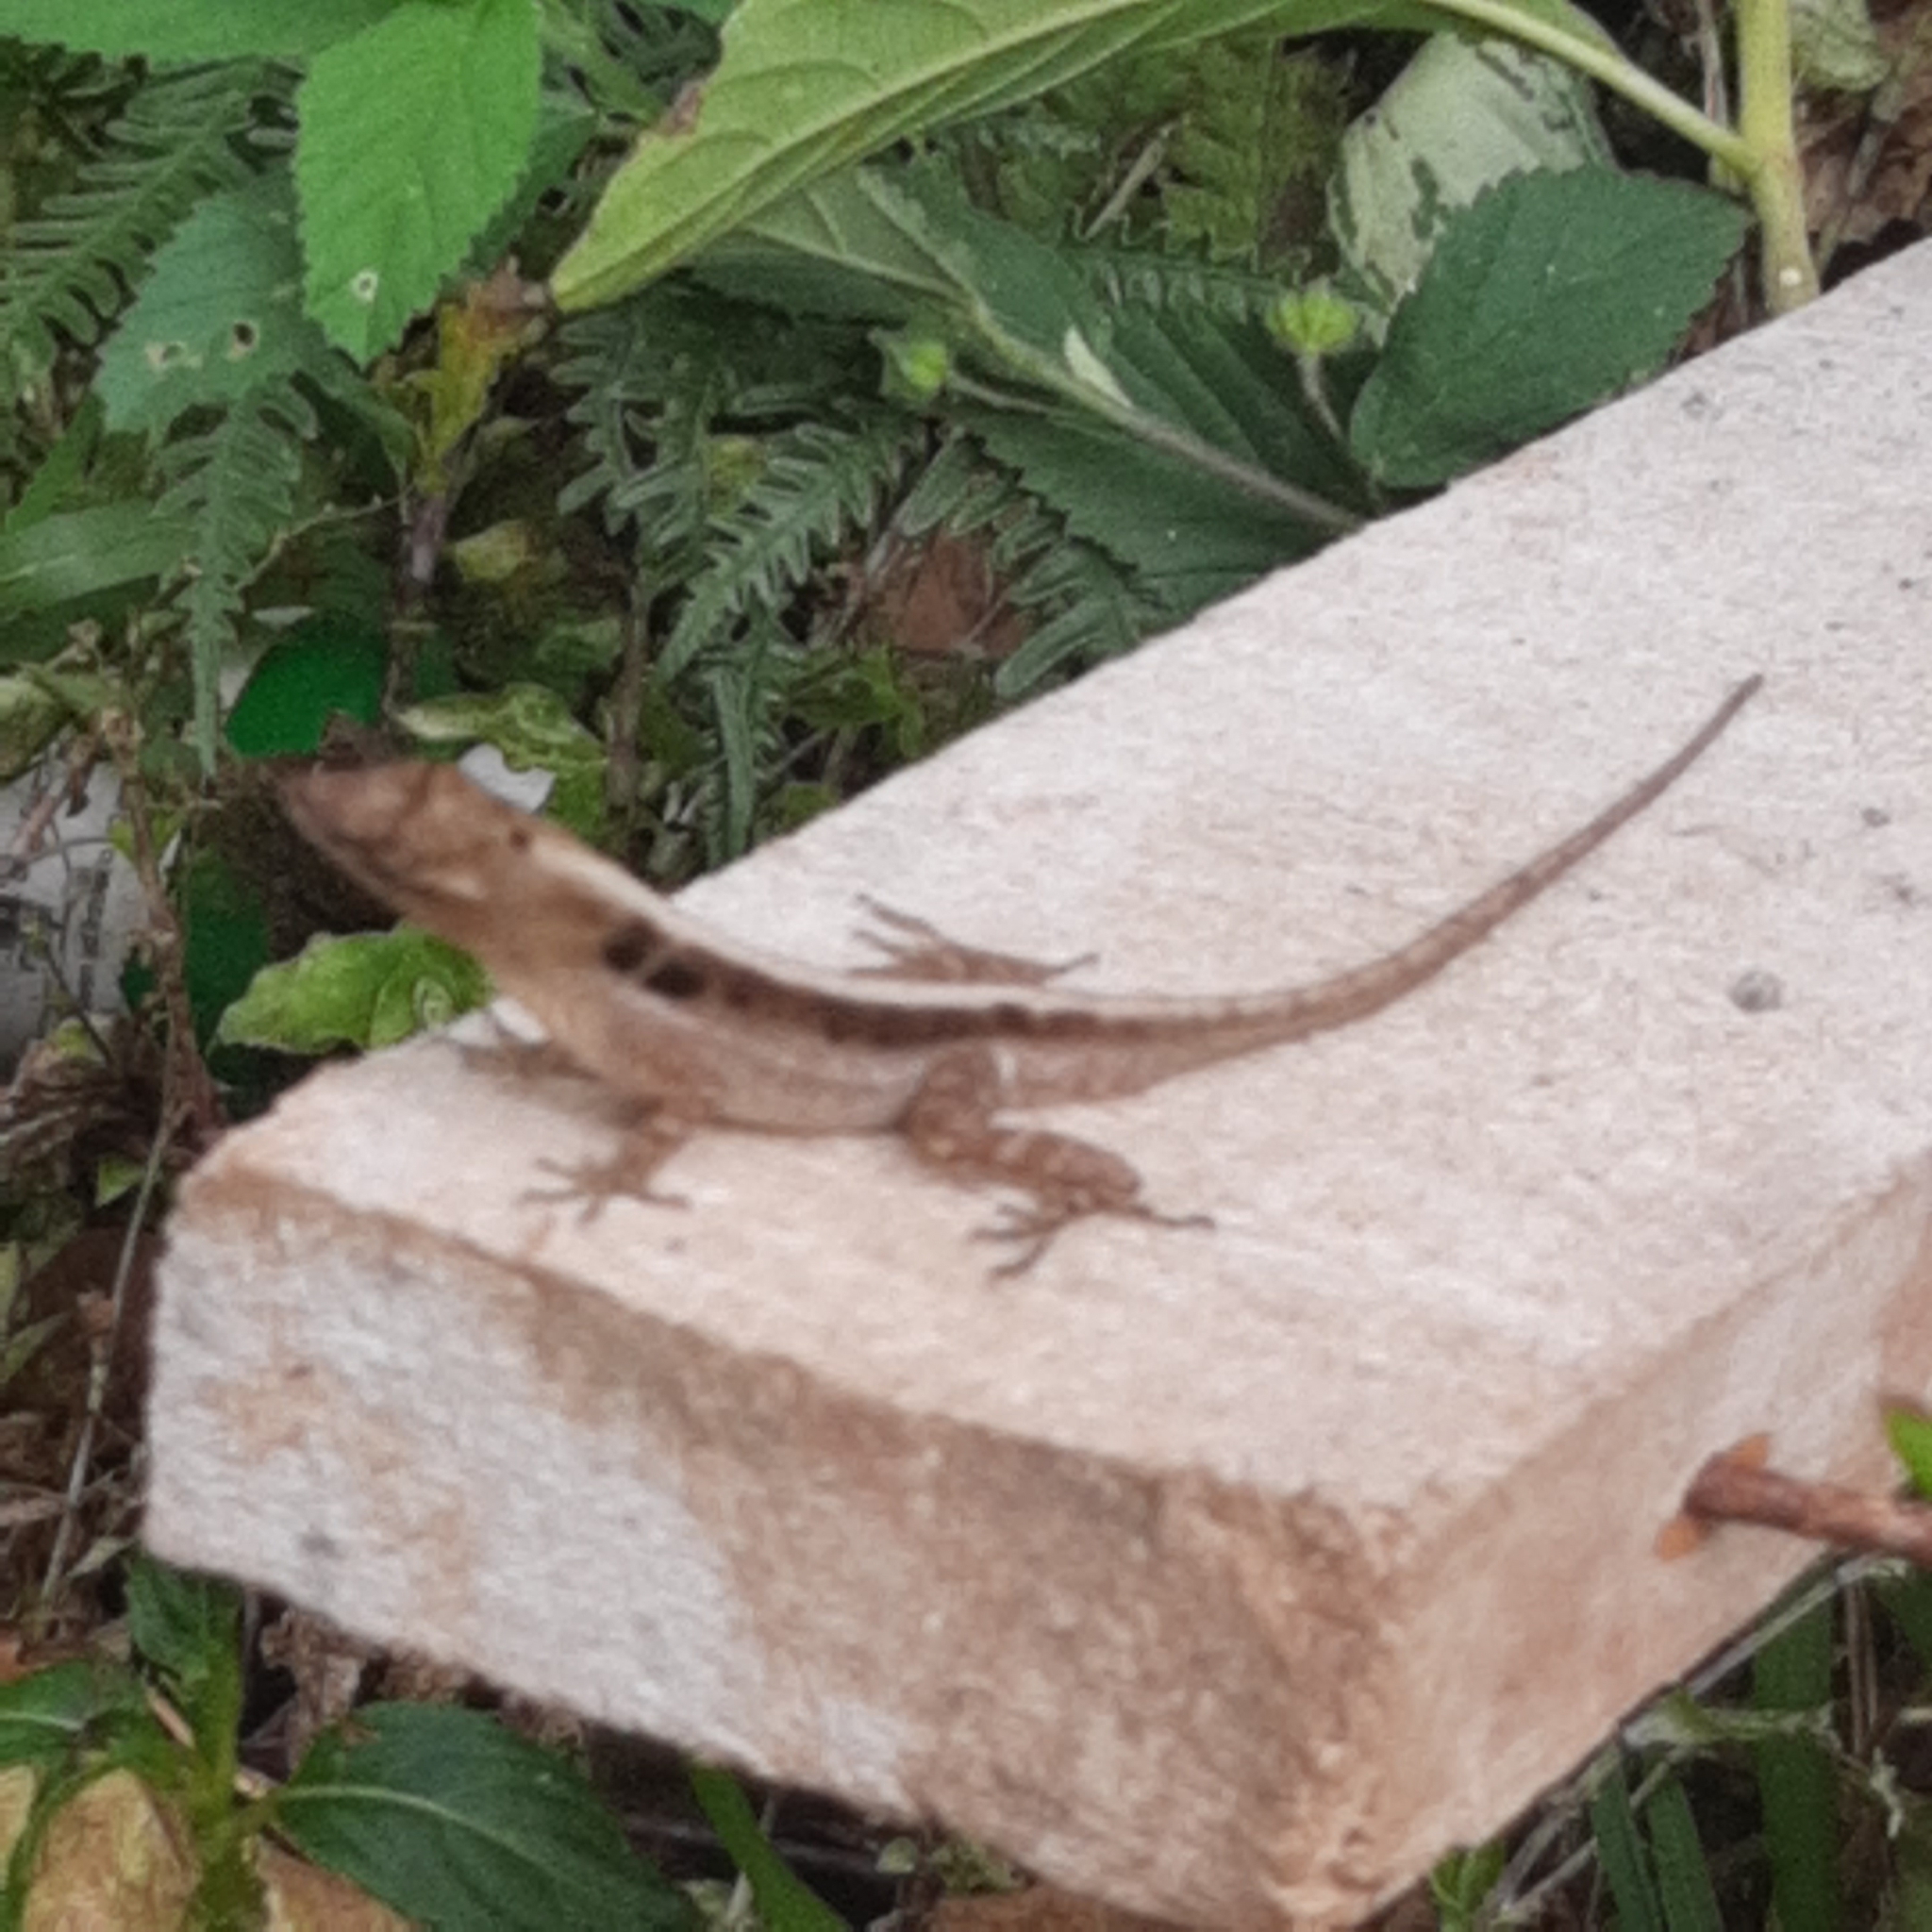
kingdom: Animalia
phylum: Chordata
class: Squamata
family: Dactyloidae
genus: Anolis
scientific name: Anolis lemurinus
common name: Ghost anole
